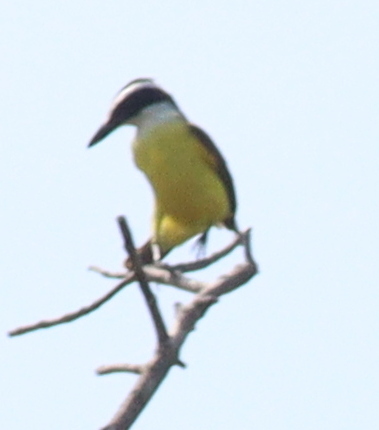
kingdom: Animalia
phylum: Chordata
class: Aves
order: Passeriformes
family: Tyrannidae
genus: Pitangus
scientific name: Pitangus sulphuratus
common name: Great kiskadee
